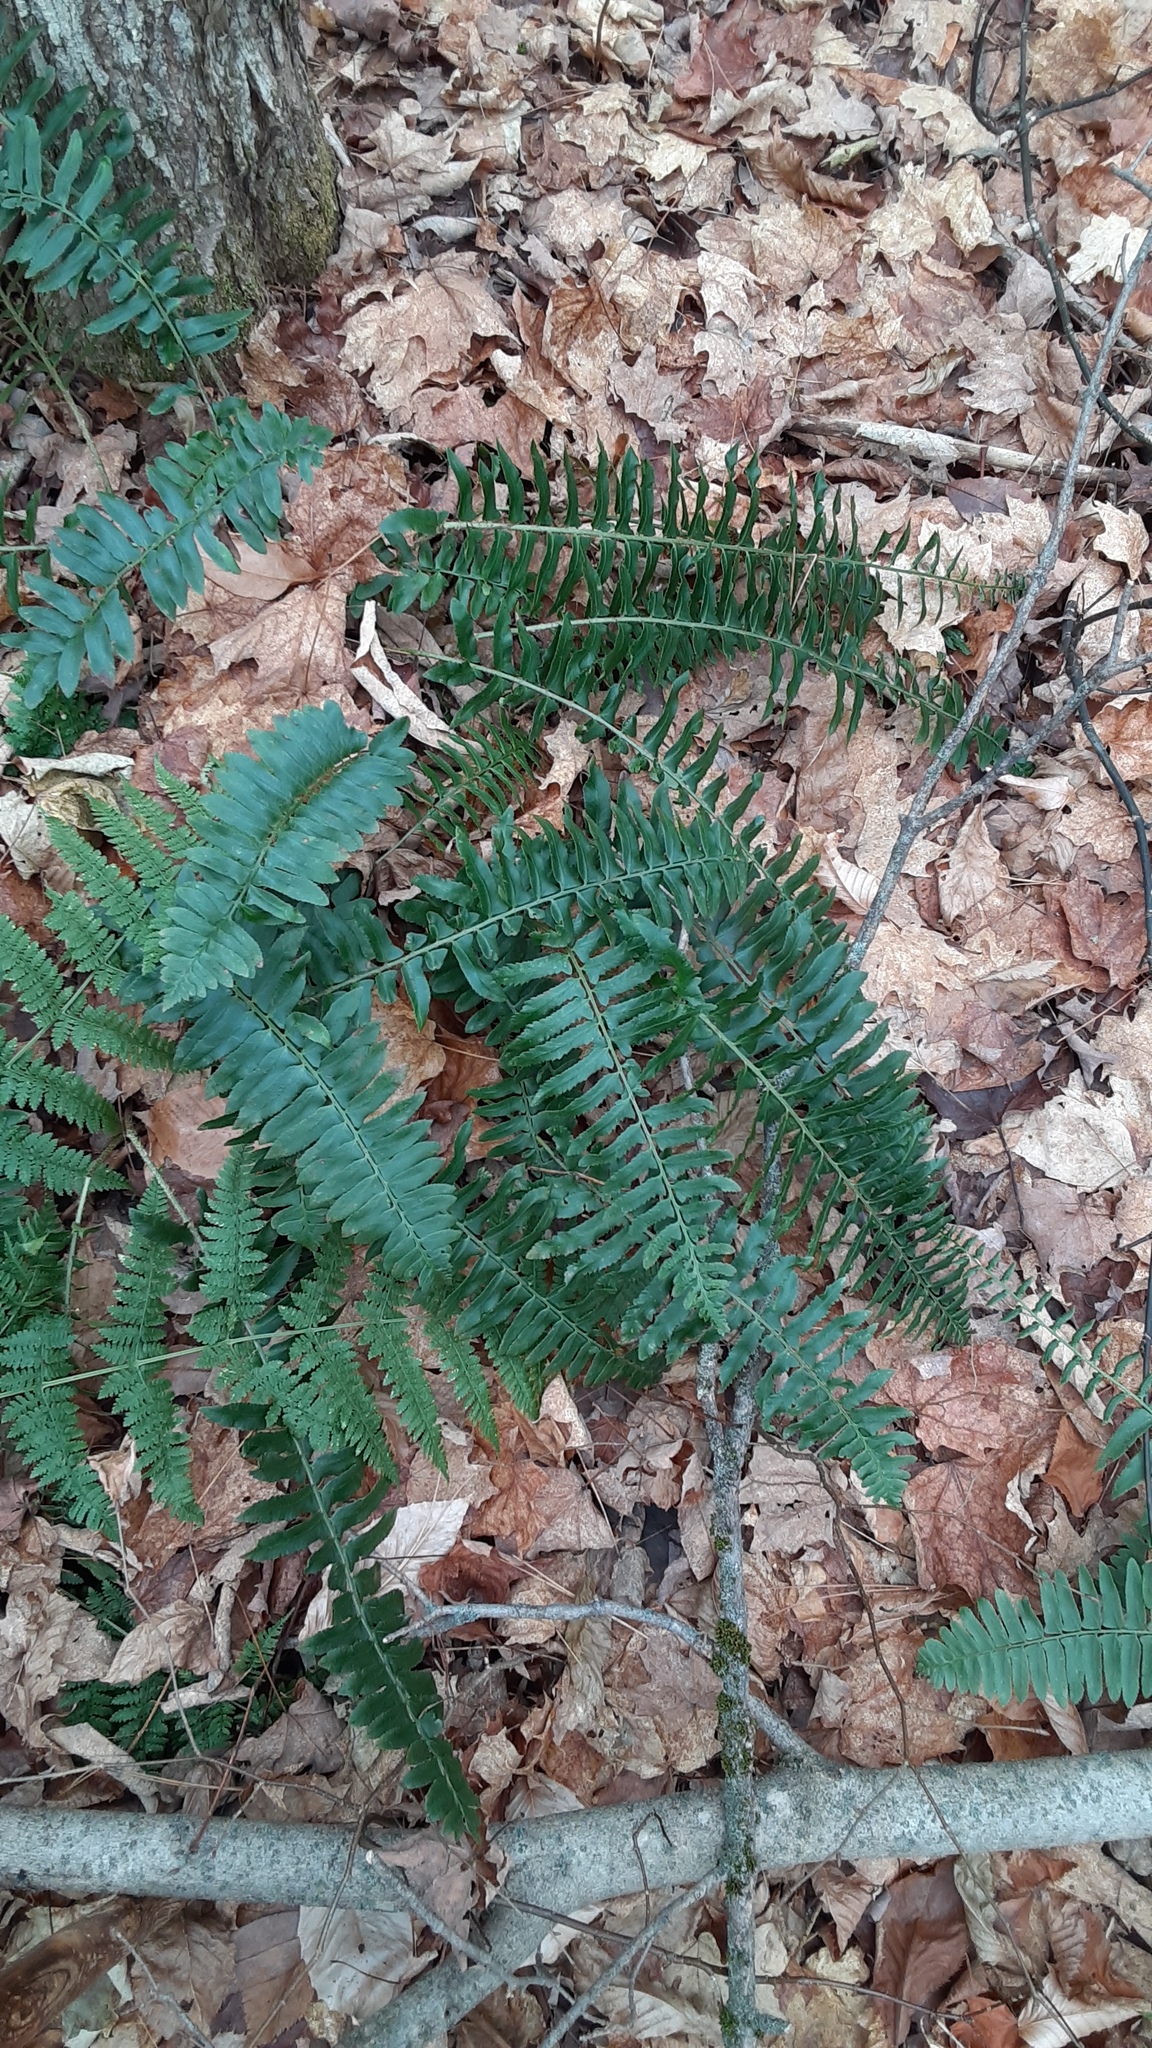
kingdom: Plantae
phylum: Tracheophyta
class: Polypodiopsida
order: Polypodiales
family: Dryopteridaceae
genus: Polystichum
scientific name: Polystichum acrostichoides
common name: Christmas fern
